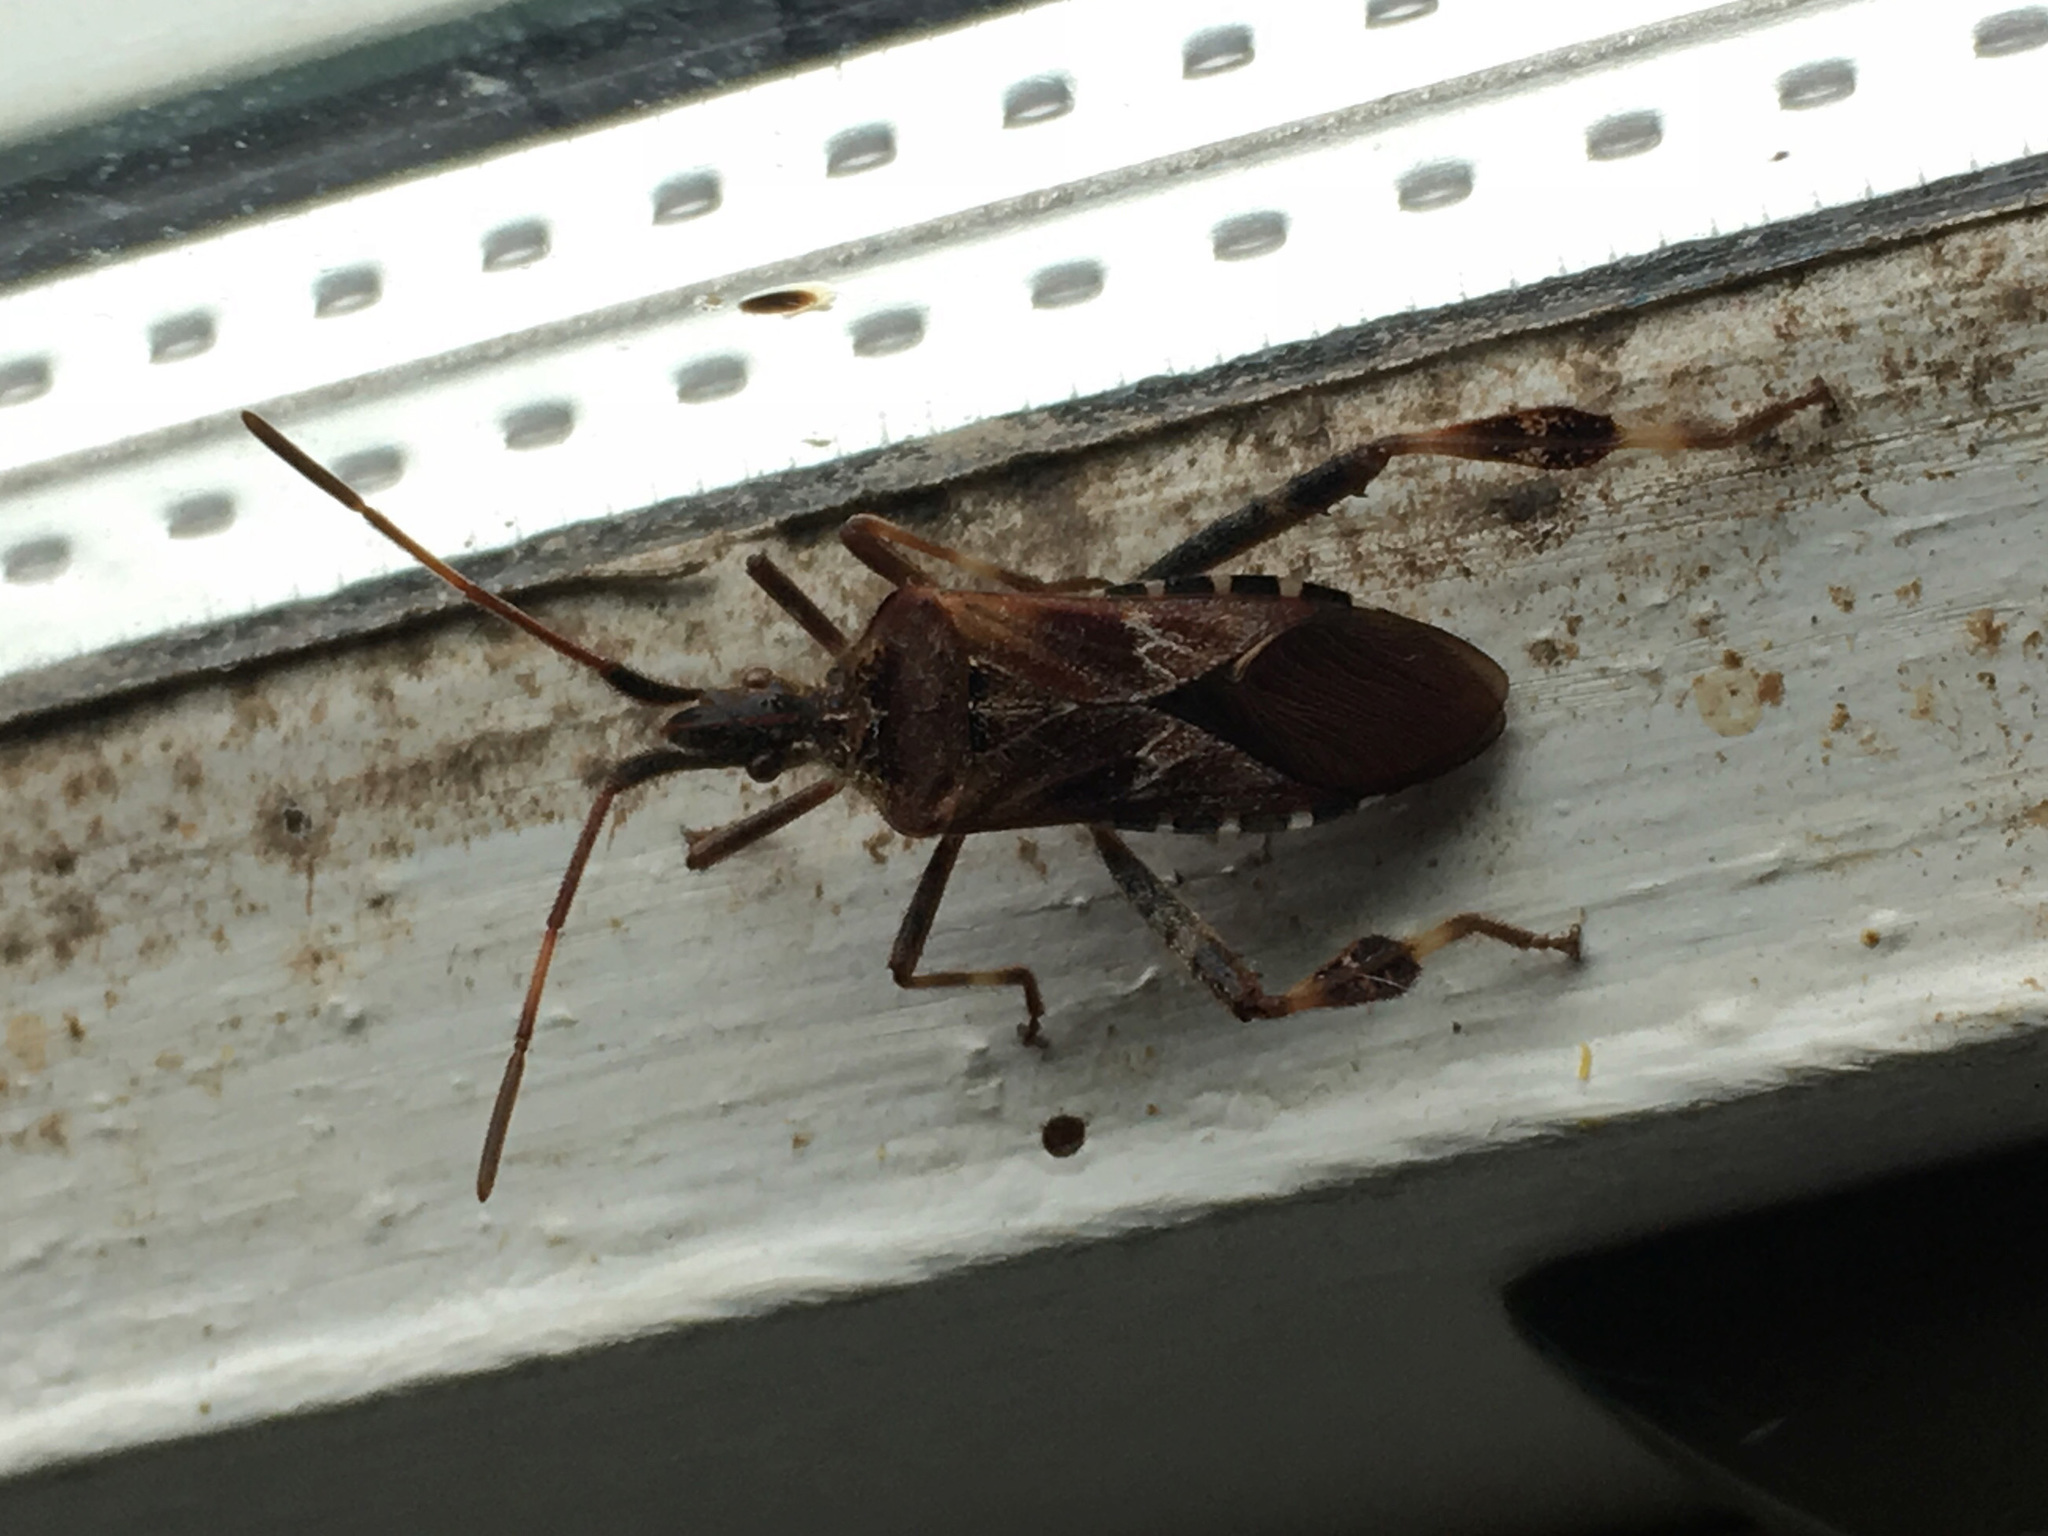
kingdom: Animalia
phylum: Arthropoda
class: Insecta
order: Hemiptera
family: Coreidae
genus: Leptoglossus
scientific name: Leptoglossus occidentalis
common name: Western conifer-seed bug
